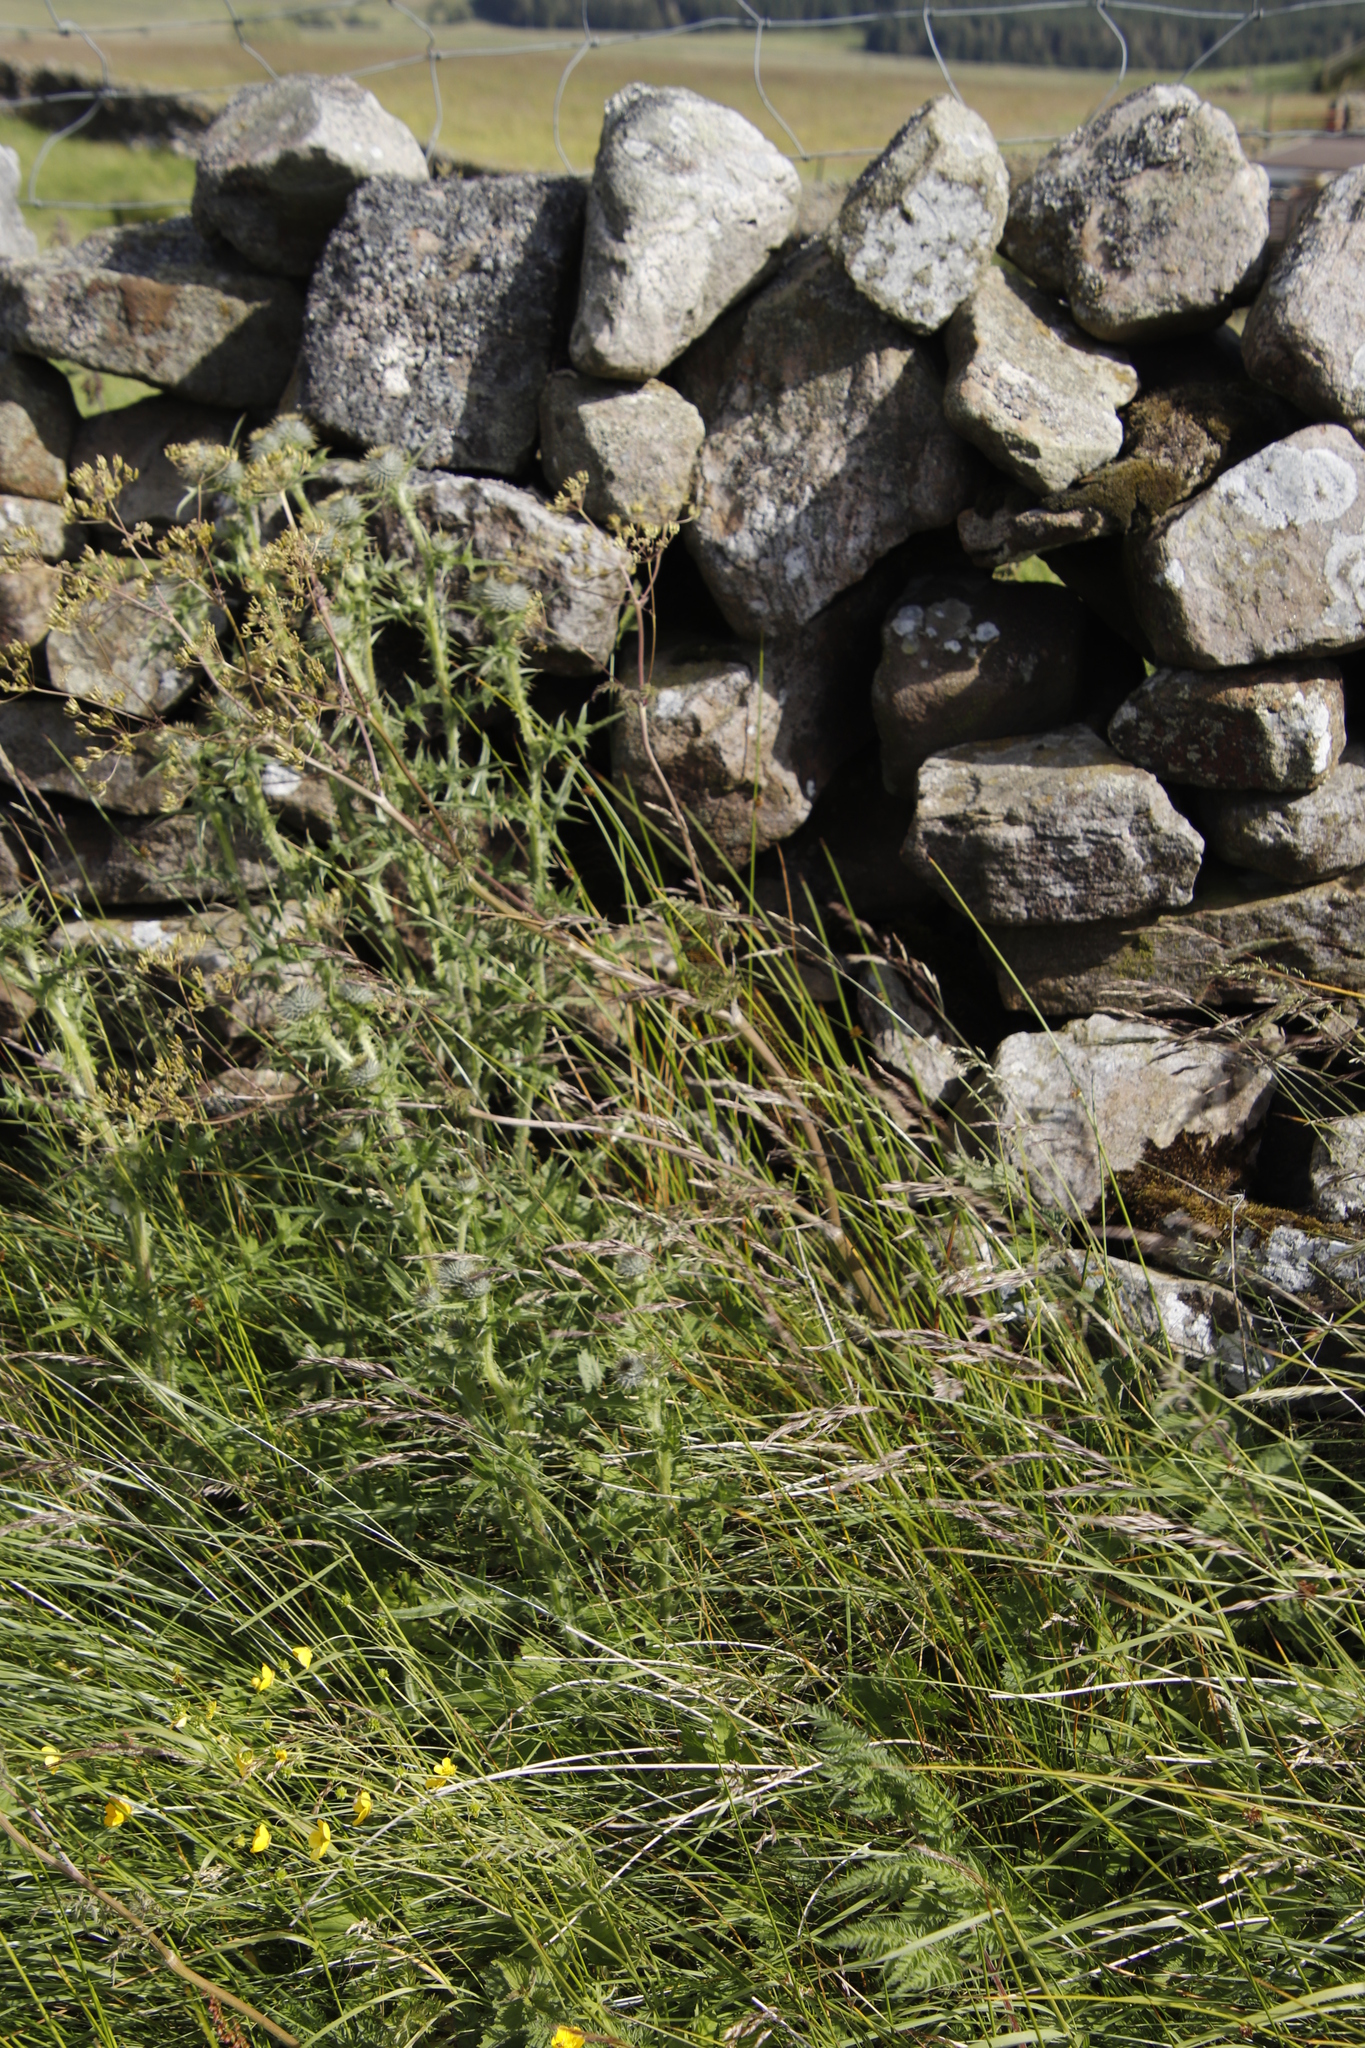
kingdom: Plantae
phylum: Tracheophyta
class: Magnoliopsida
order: Asterales
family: Asteraceae
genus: Cirsium
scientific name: Cirsium vulgare
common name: Bull thistle
